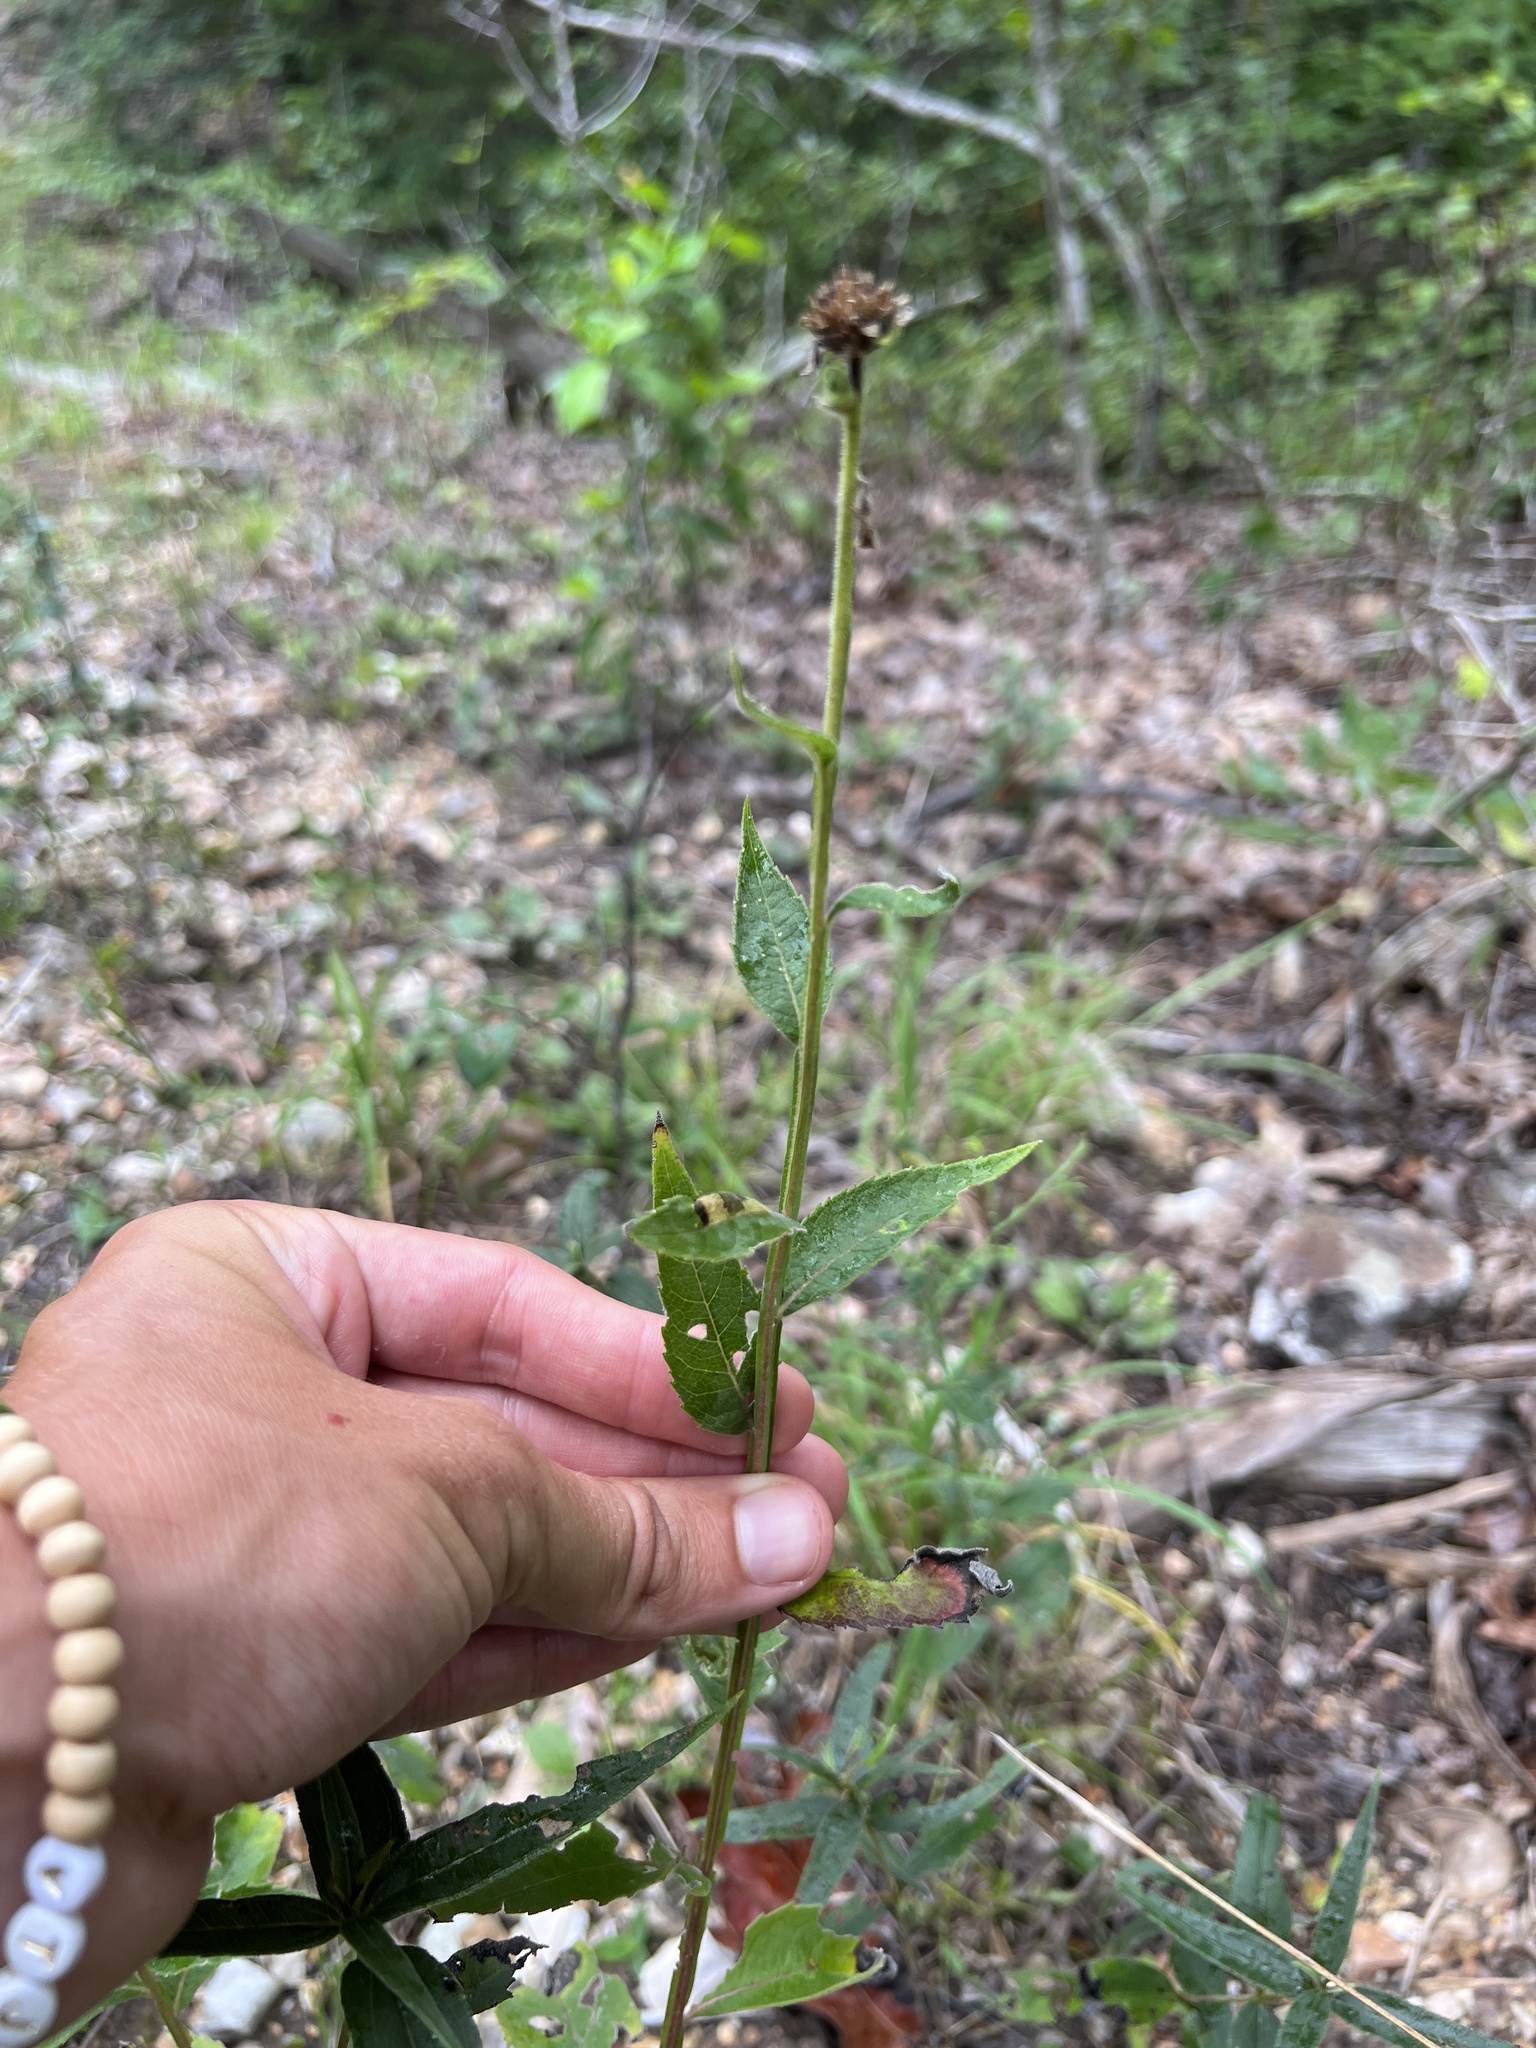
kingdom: Plantae
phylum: Tracheophyta
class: Magnoliopsida
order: Asterales
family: Asteraceae
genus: Verbesina
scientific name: Verbesina helianthoides
